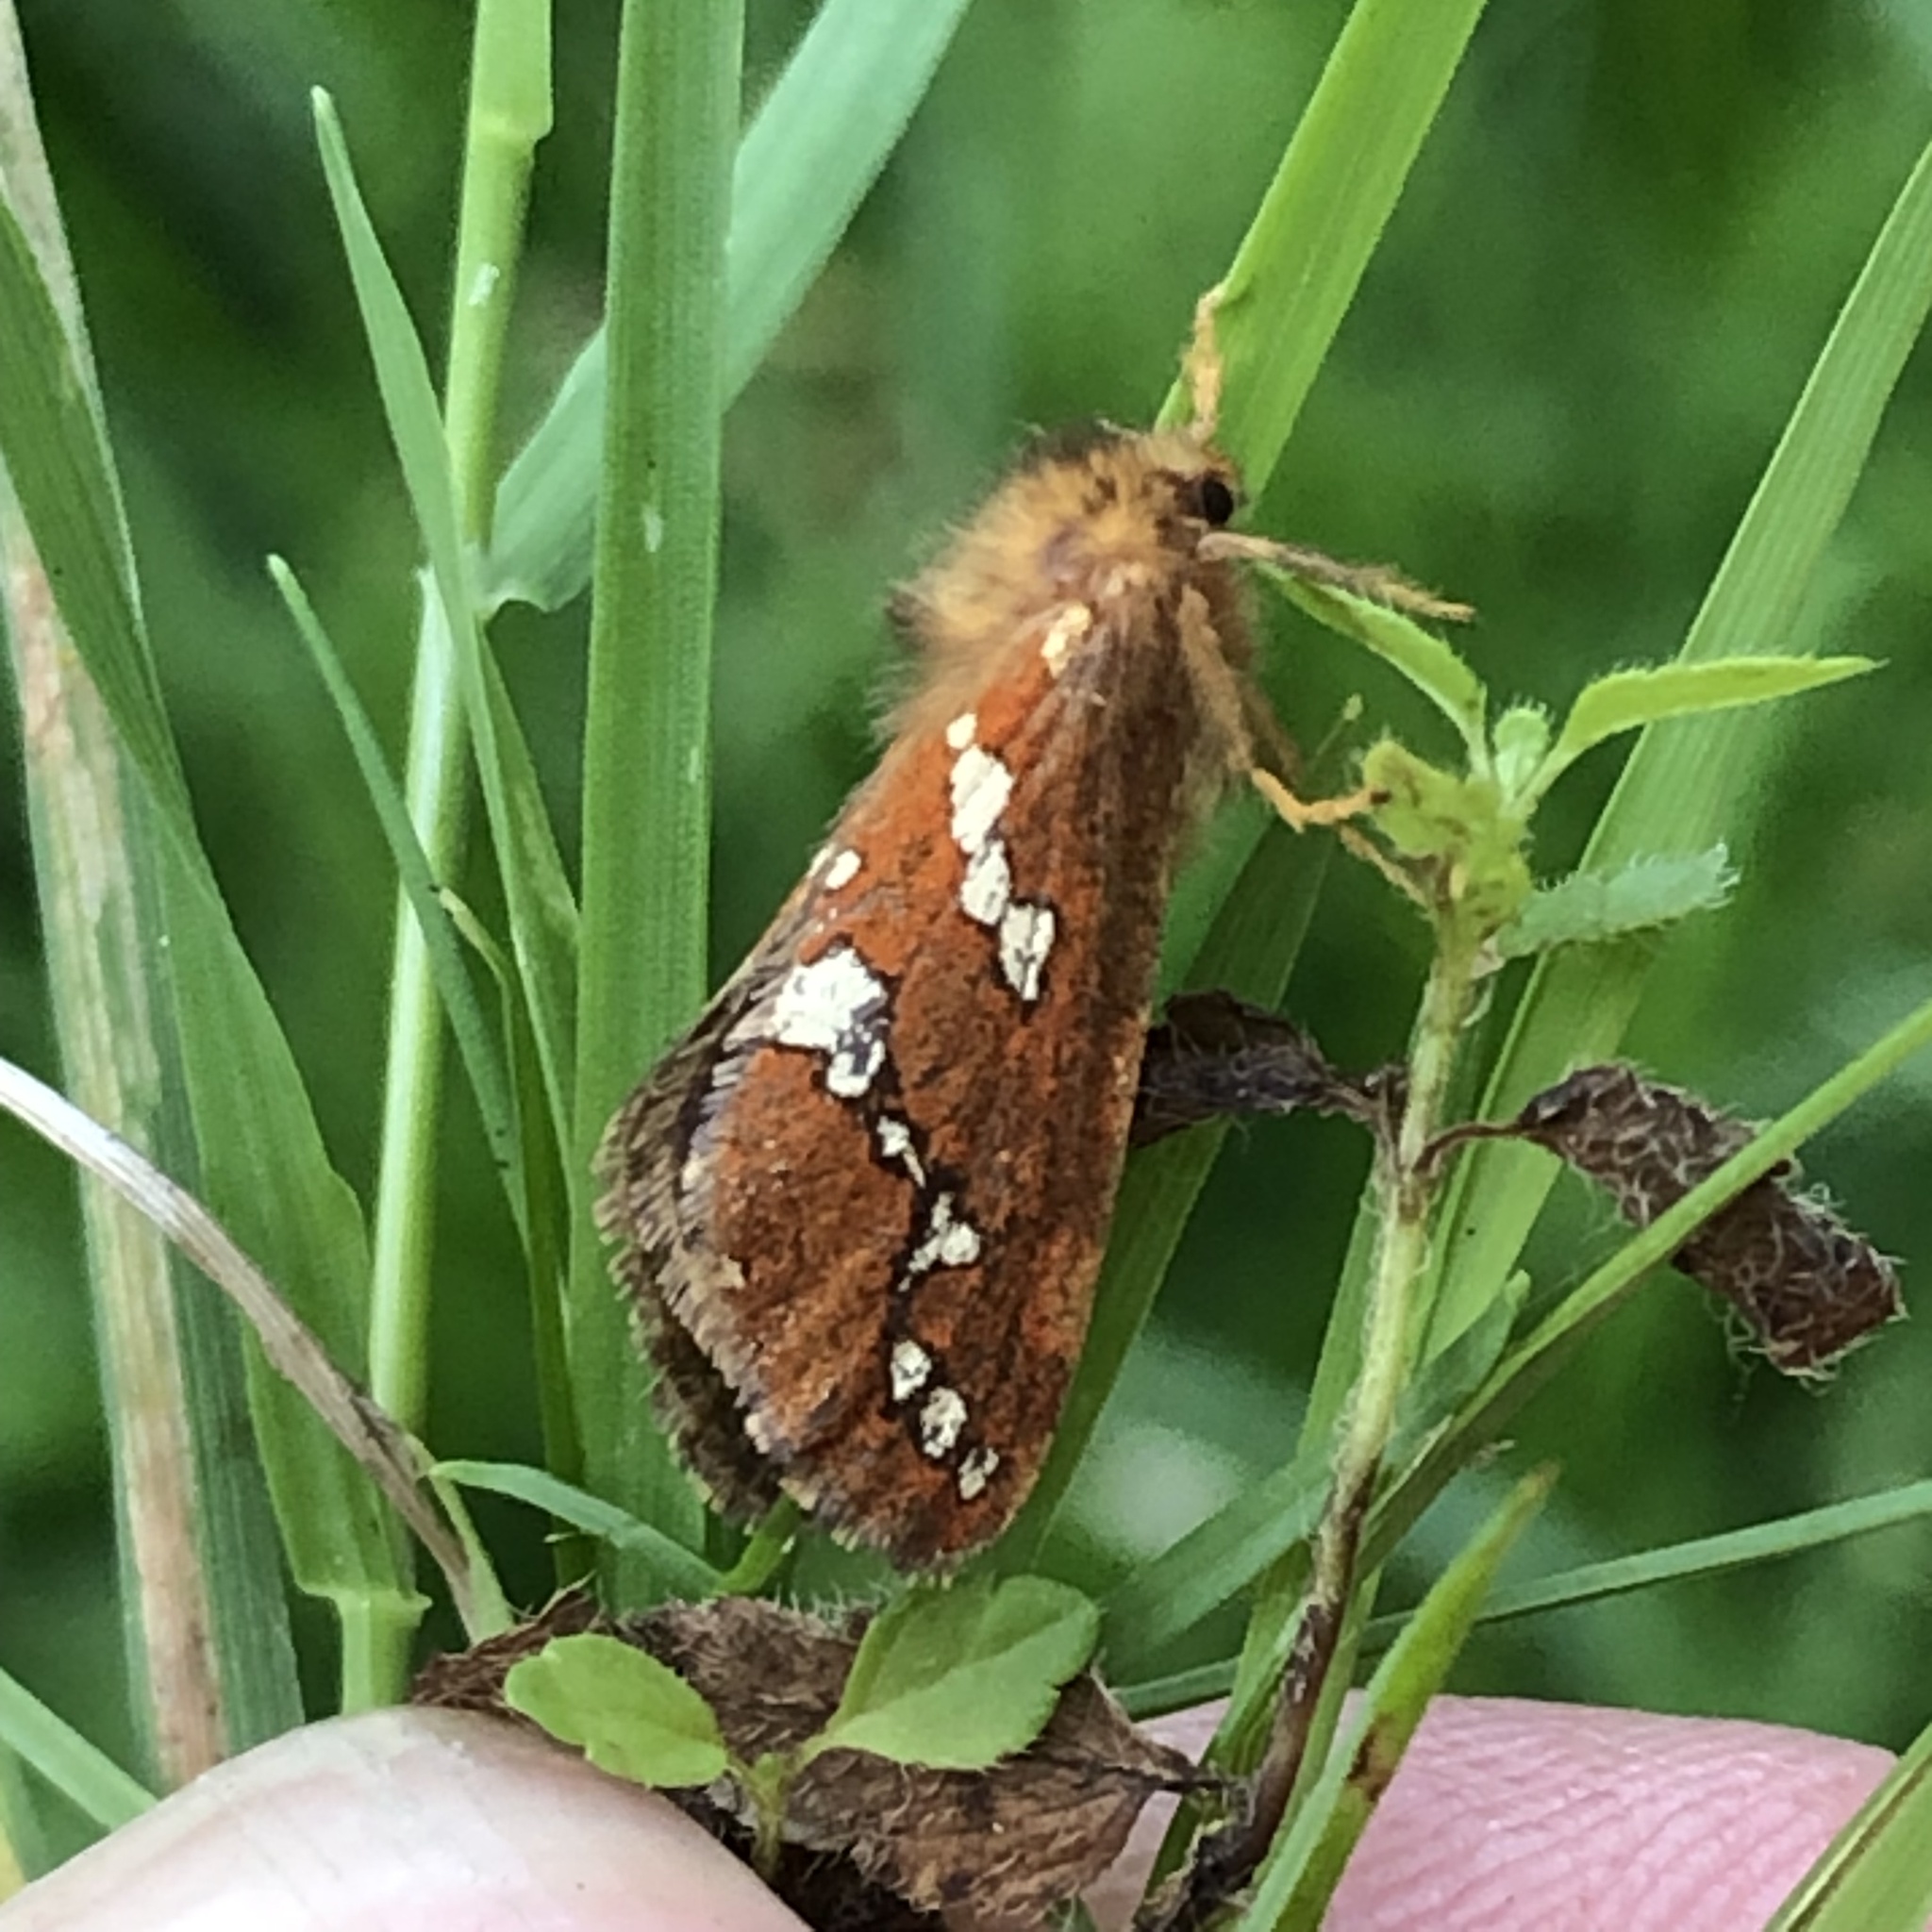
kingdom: Animalia
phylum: Arthropoda
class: Insecta
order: Lepidoptera
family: Hepialidae
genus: Phymatopus
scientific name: Phymatopus hecta
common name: Gold swift
